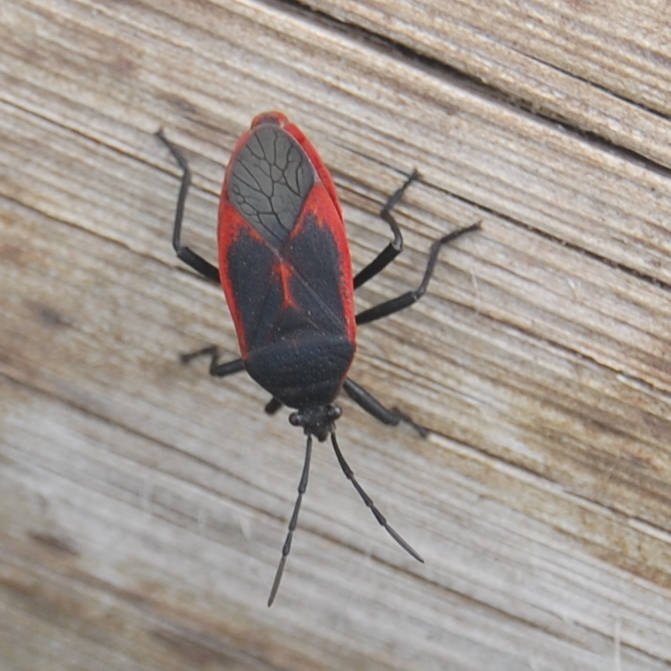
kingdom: Animalia
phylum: Arthropoda
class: Insecta
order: Hemiptera
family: Largidae
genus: Largus
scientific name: Largus rufipennis
